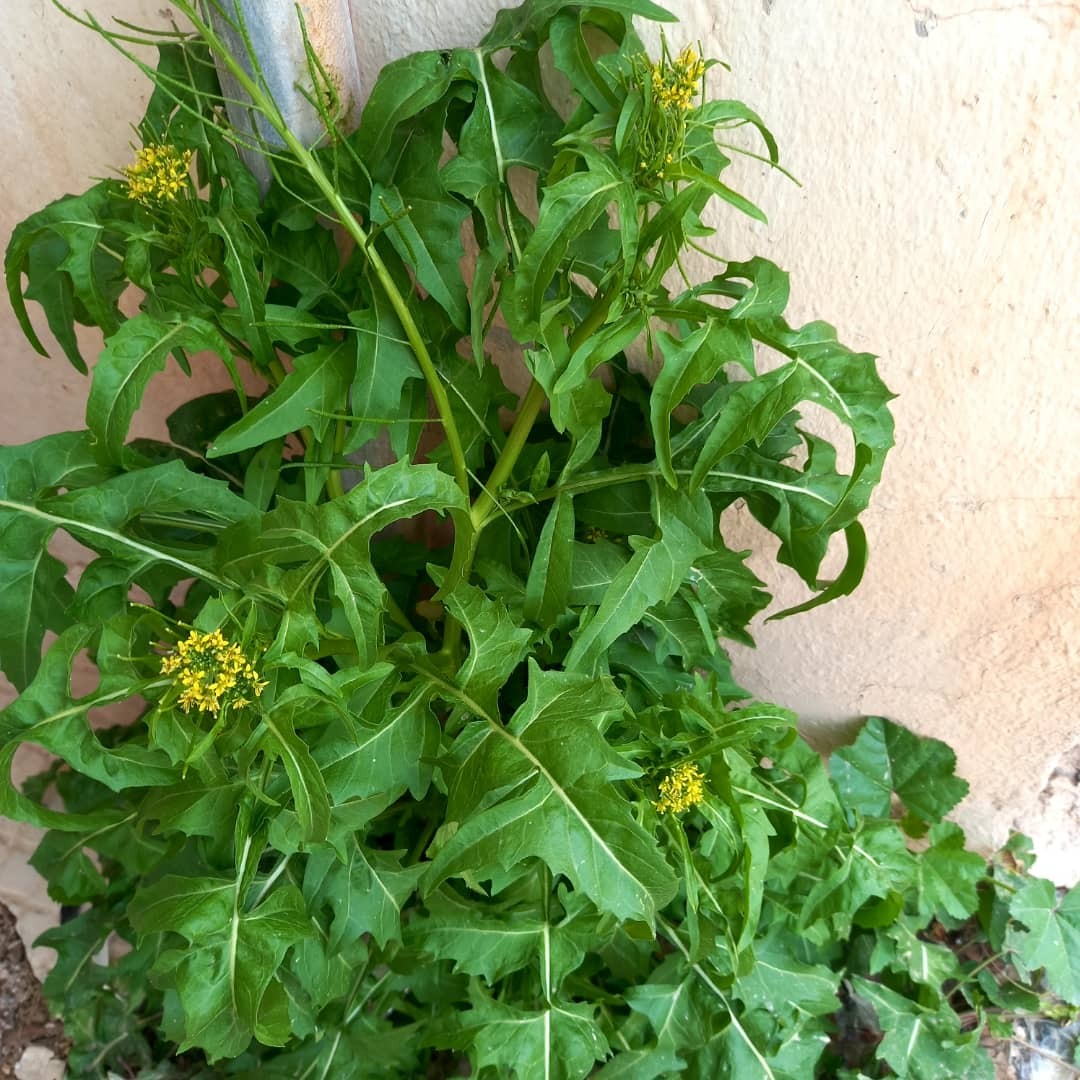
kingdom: Plantae
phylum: Tracheophyta
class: Magnoliopsida
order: Brassicales
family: Brassicaceae
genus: Sisymbrium
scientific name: Sisymbrium irio
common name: London rocket
